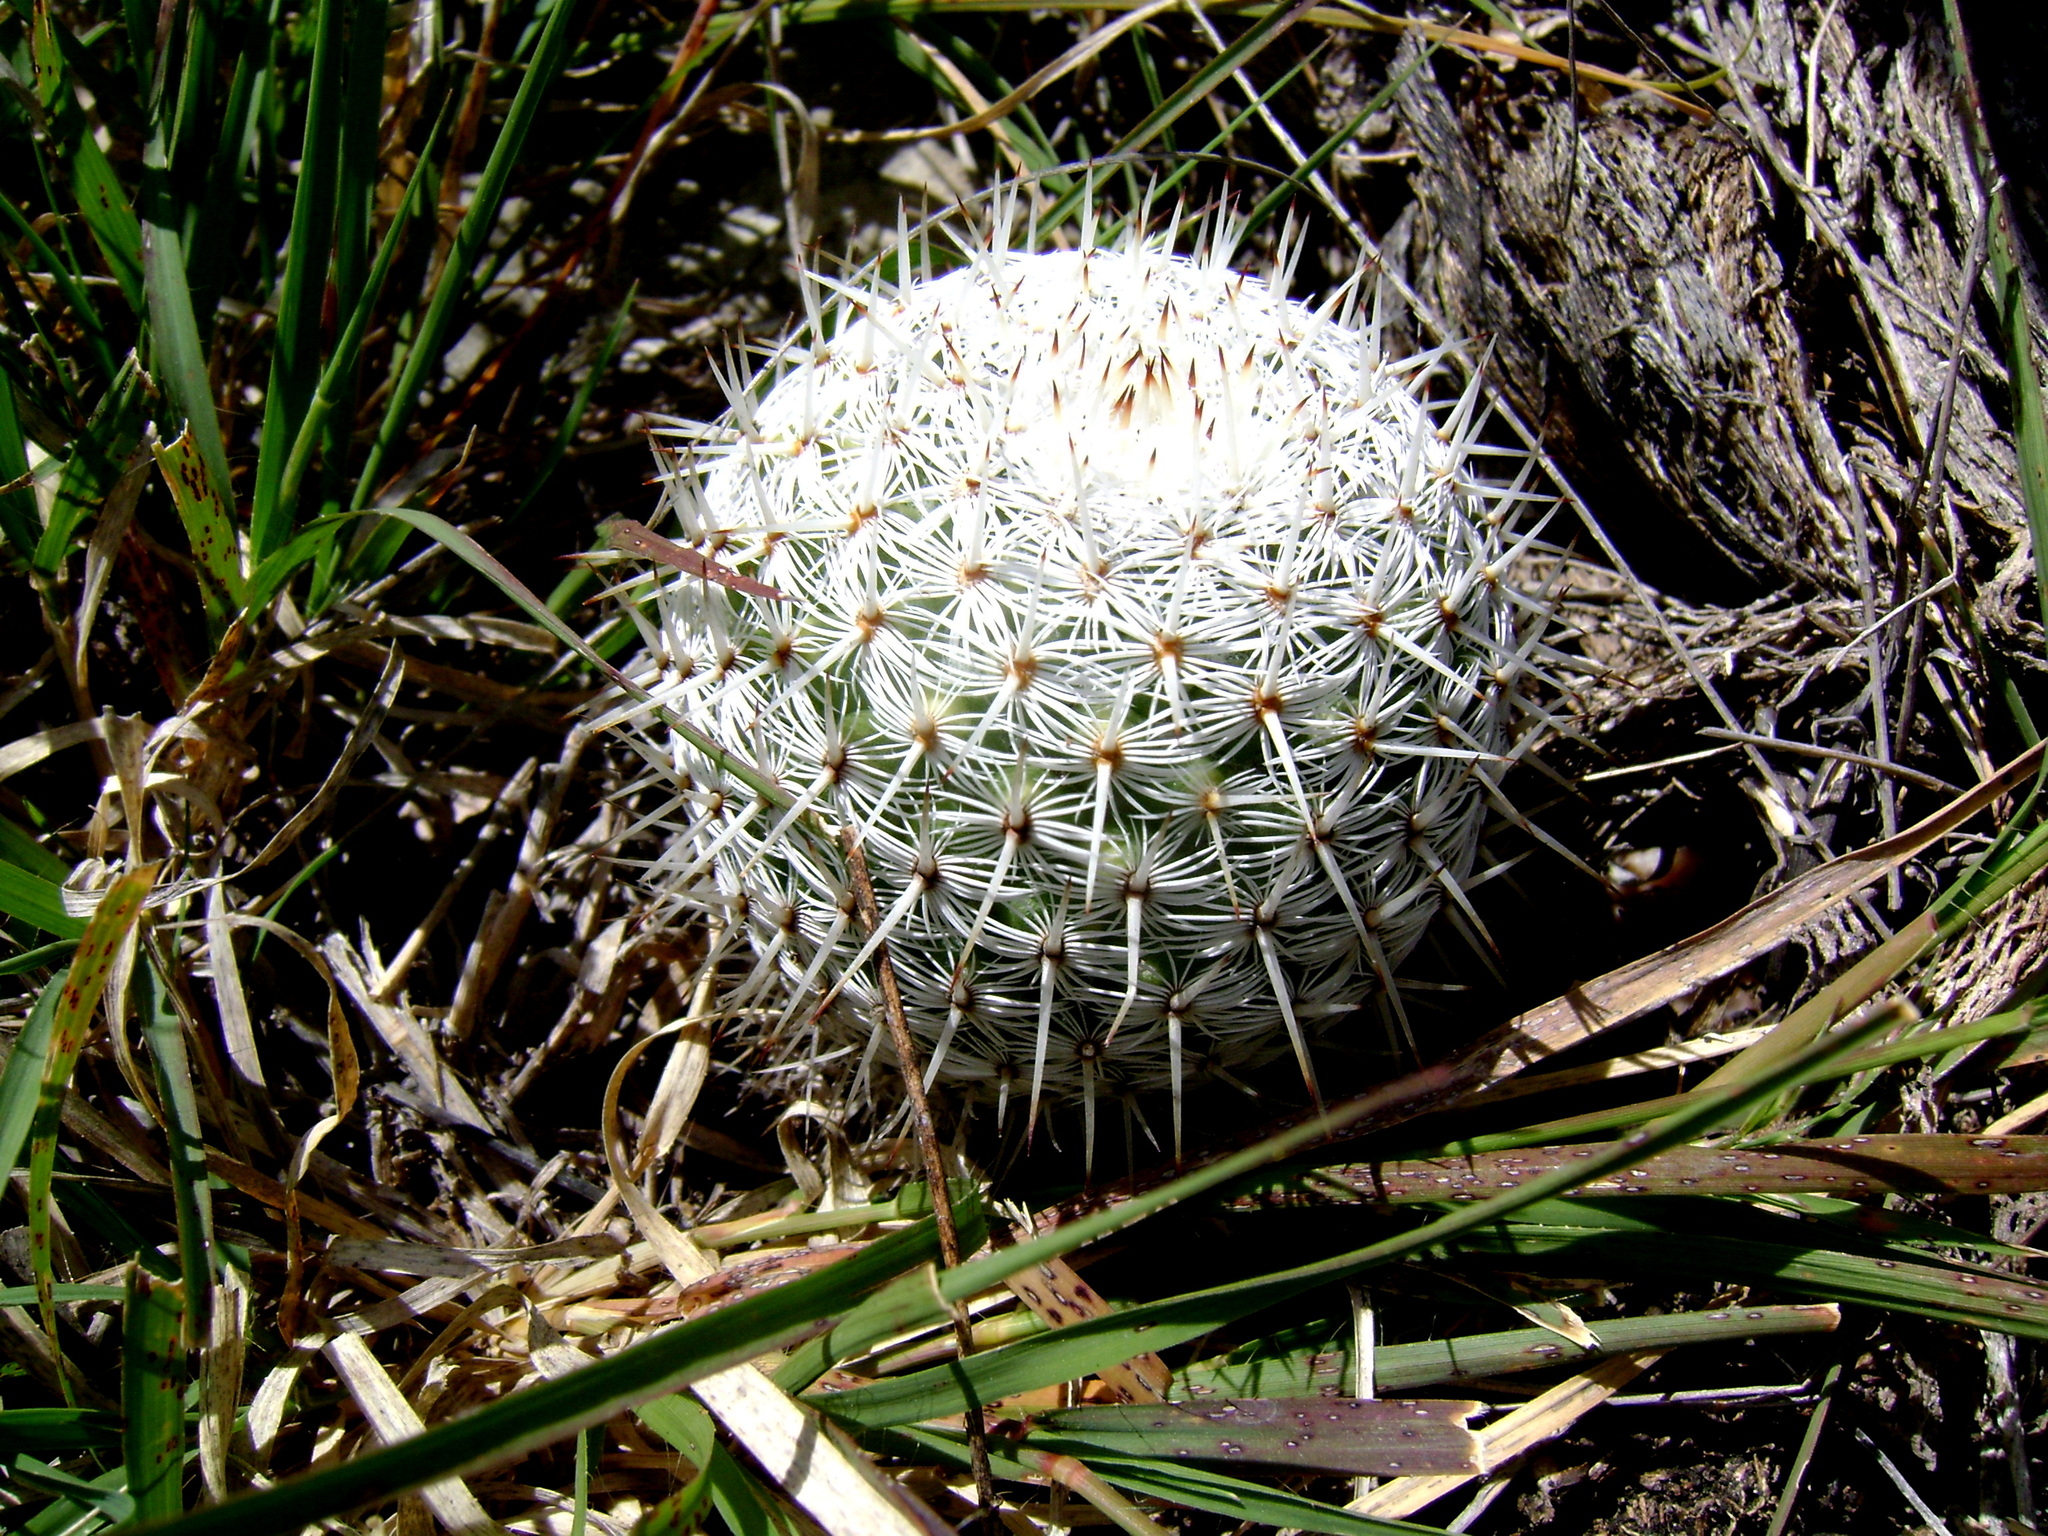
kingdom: Plantae
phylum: Tracheophyta
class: Magnoliopsida
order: Caryophyllales
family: Cactaceae
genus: Mammillaria
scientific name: Mammillaria haageana
